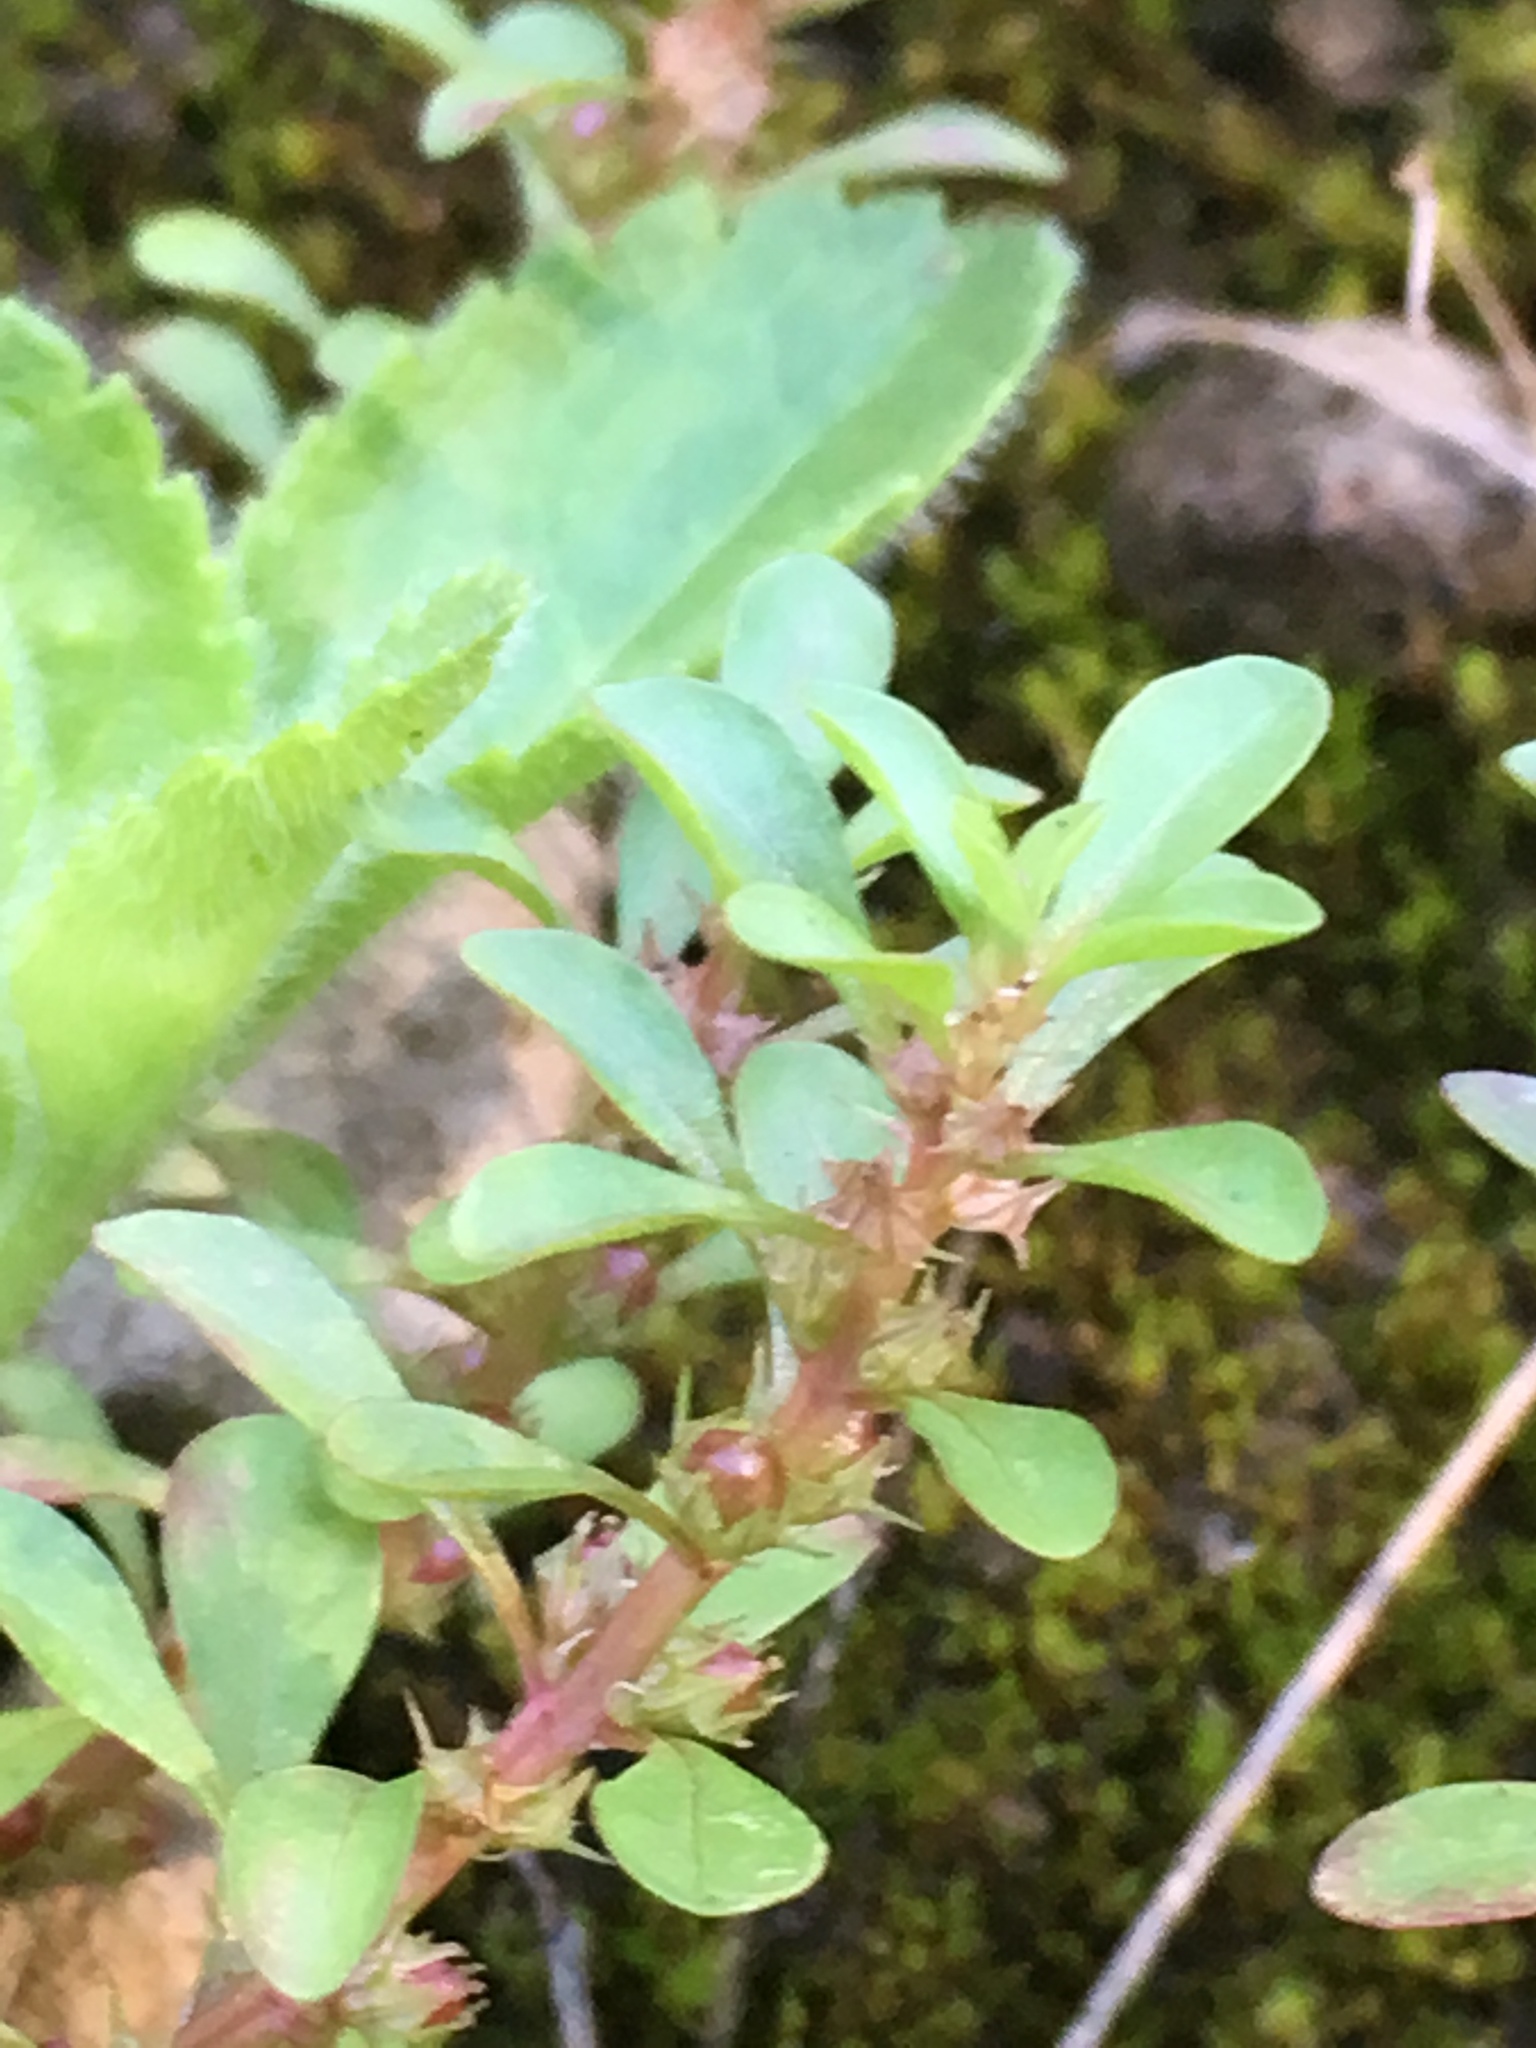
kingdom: Plantae
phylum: Tracheophyta
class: Magnoliopsida
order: Myrtales
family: Lythraceae
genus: Lythrum
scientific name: Lythrum portula
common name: Water purslane
